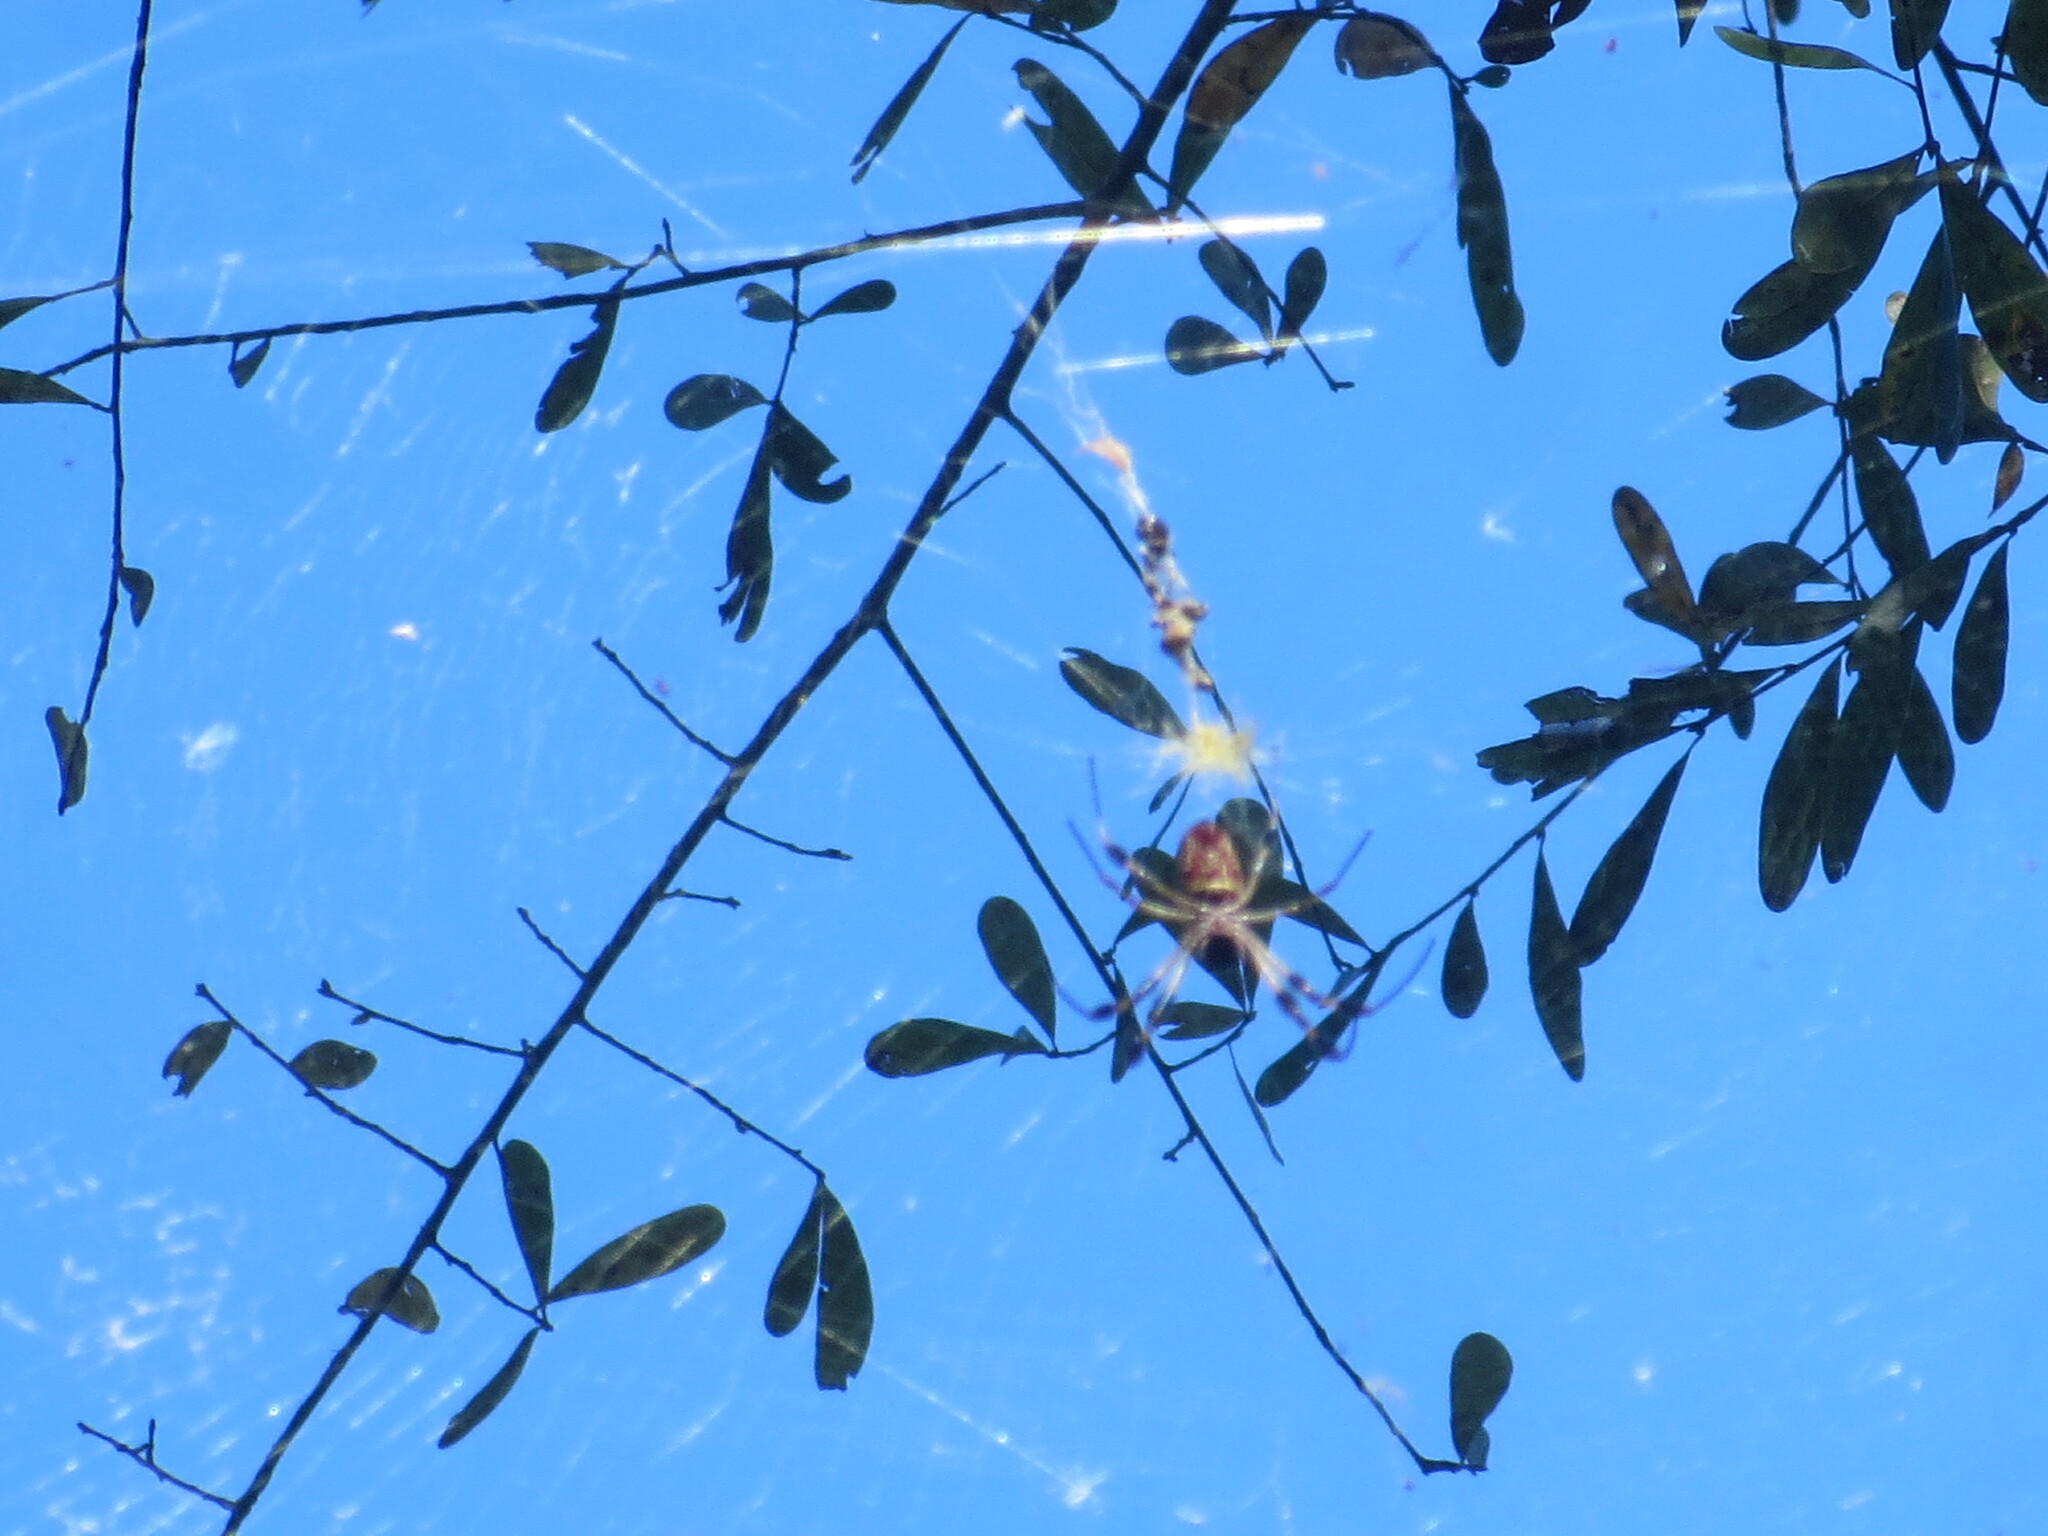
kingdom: Animalia
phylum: Arthropoda
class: Arachnida
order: Araneae
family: Araneidae
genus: Trichonephila
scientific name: Trichonephila clavipes
